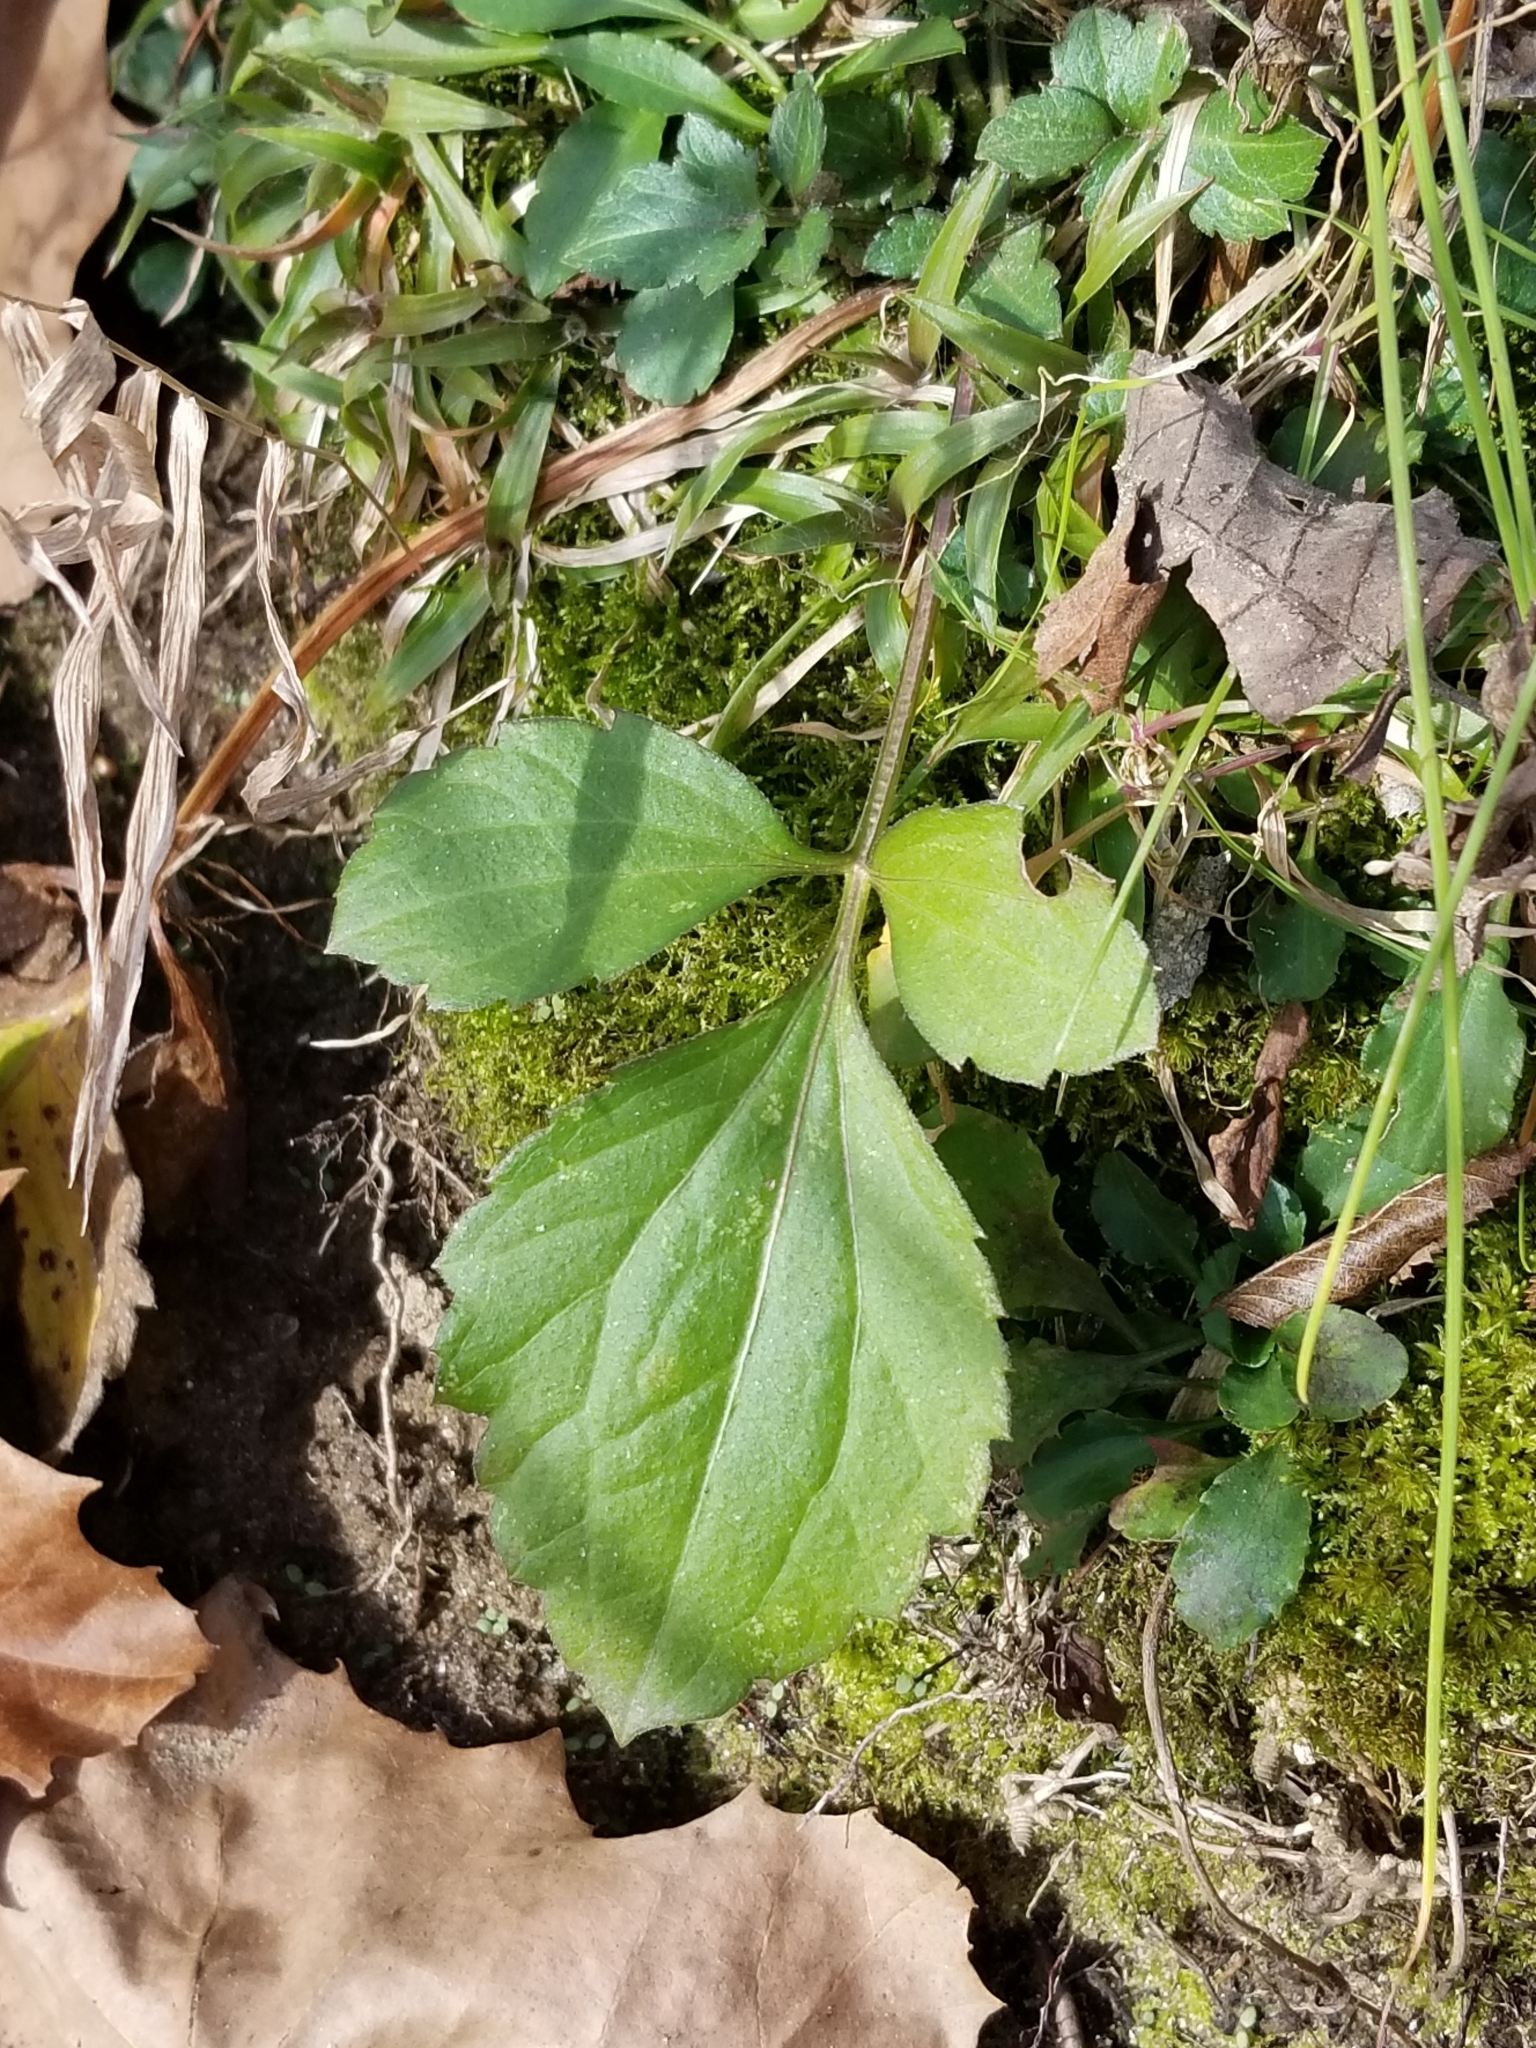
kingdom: Plantae
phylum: Tracheophyta
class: Magnoliopsida
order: Asterales
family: Asteraceae
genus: Rudbeckia
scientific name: Rudbeckia laciniata
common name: Coneflower
